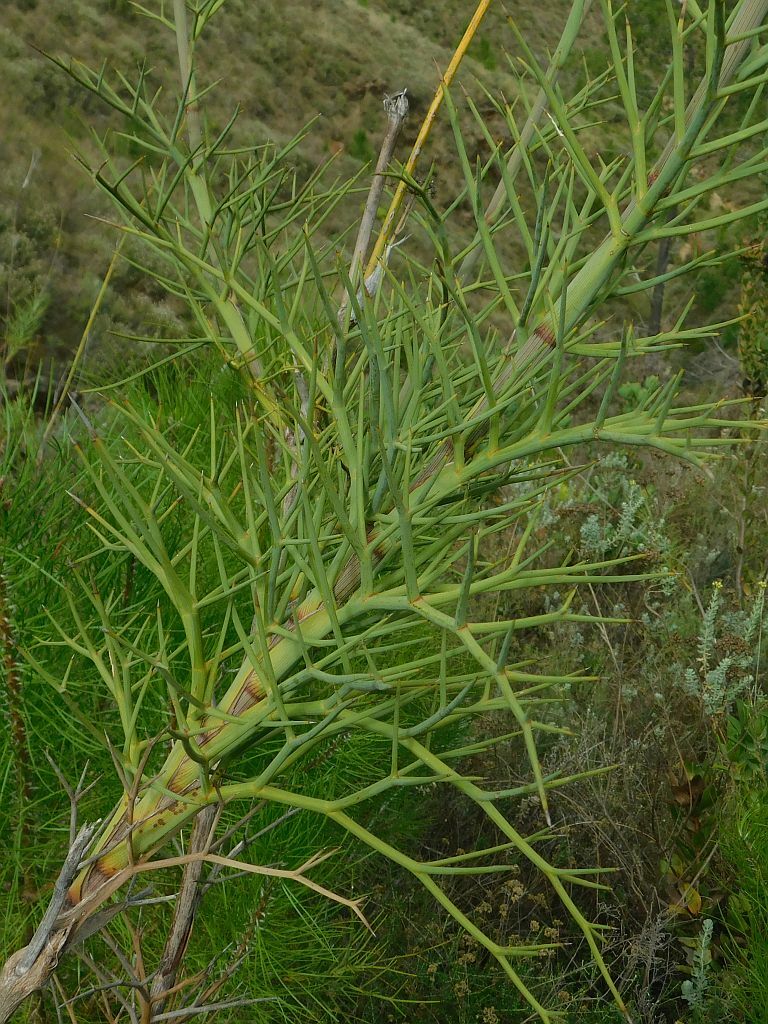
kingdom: Plantae
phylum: Tracheophyta
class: Magnoliopsida
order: Apiales
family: Apiaceae
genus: Notobubon
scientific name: Notobubon pungens
